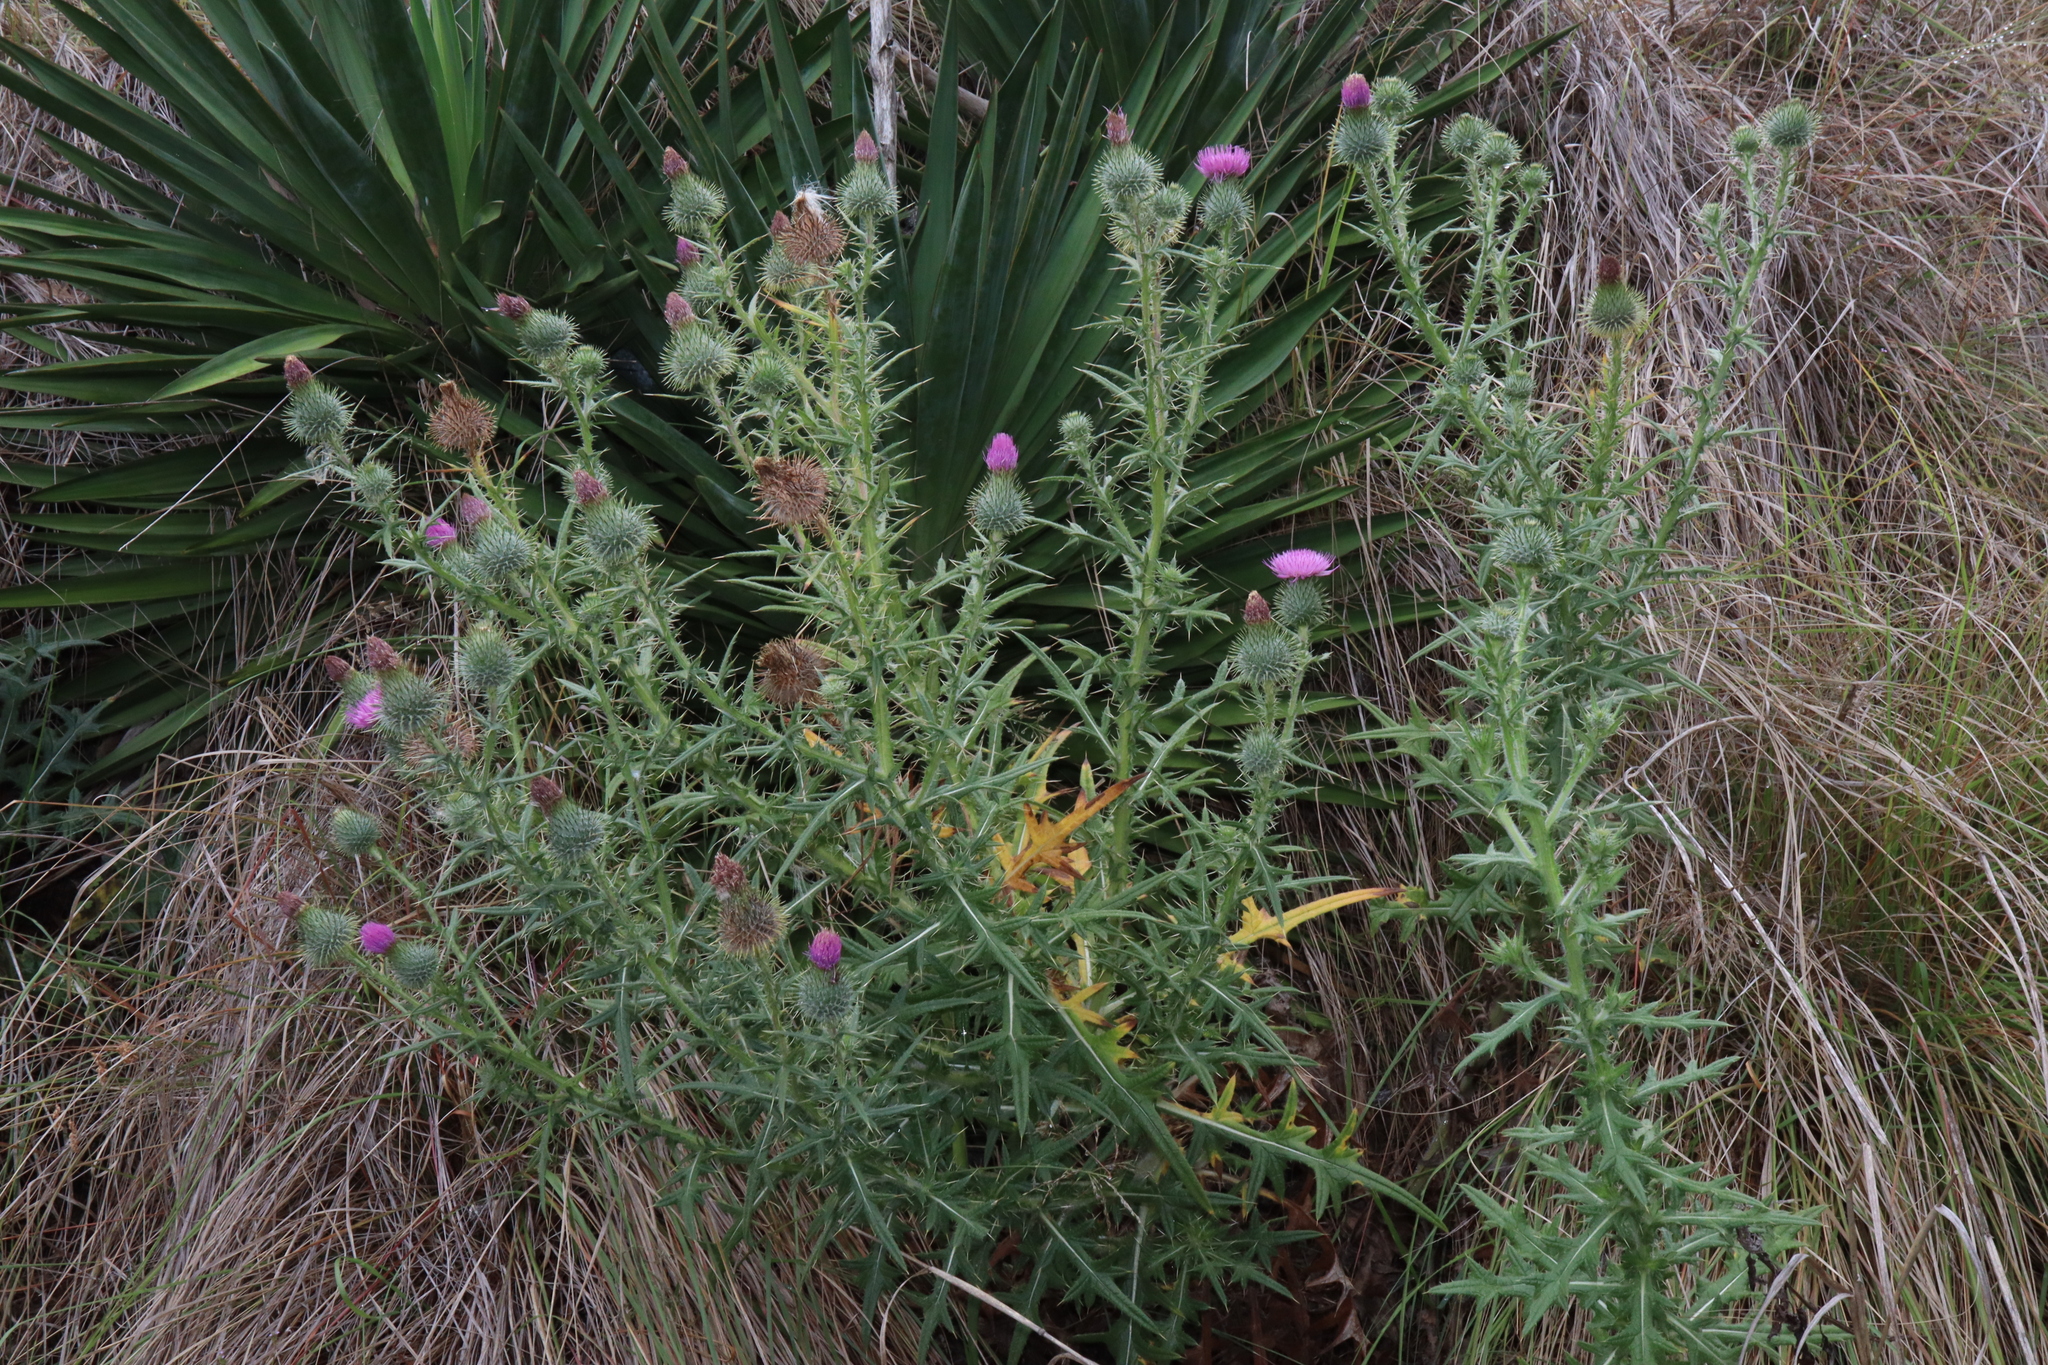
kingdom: Plantae
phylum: Tracheophyta
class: Magnoliopsida
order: Asterales
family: Asteraceae
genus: Cirsium
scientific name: Cirsium vulgare
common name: Bull thistle
